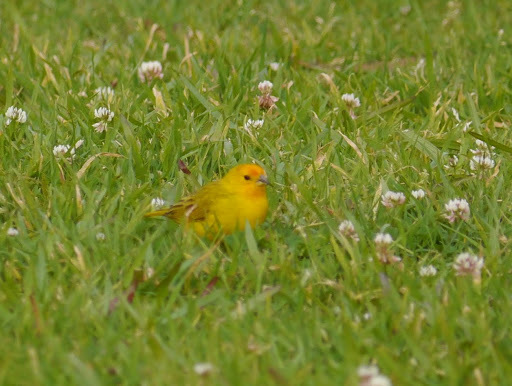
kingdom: Animalia
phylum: Chordata
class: Aves
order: Passeriformes
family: Thraupidae
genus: Sicalis
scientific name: Sicalis flaveola
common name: Saffron finch
